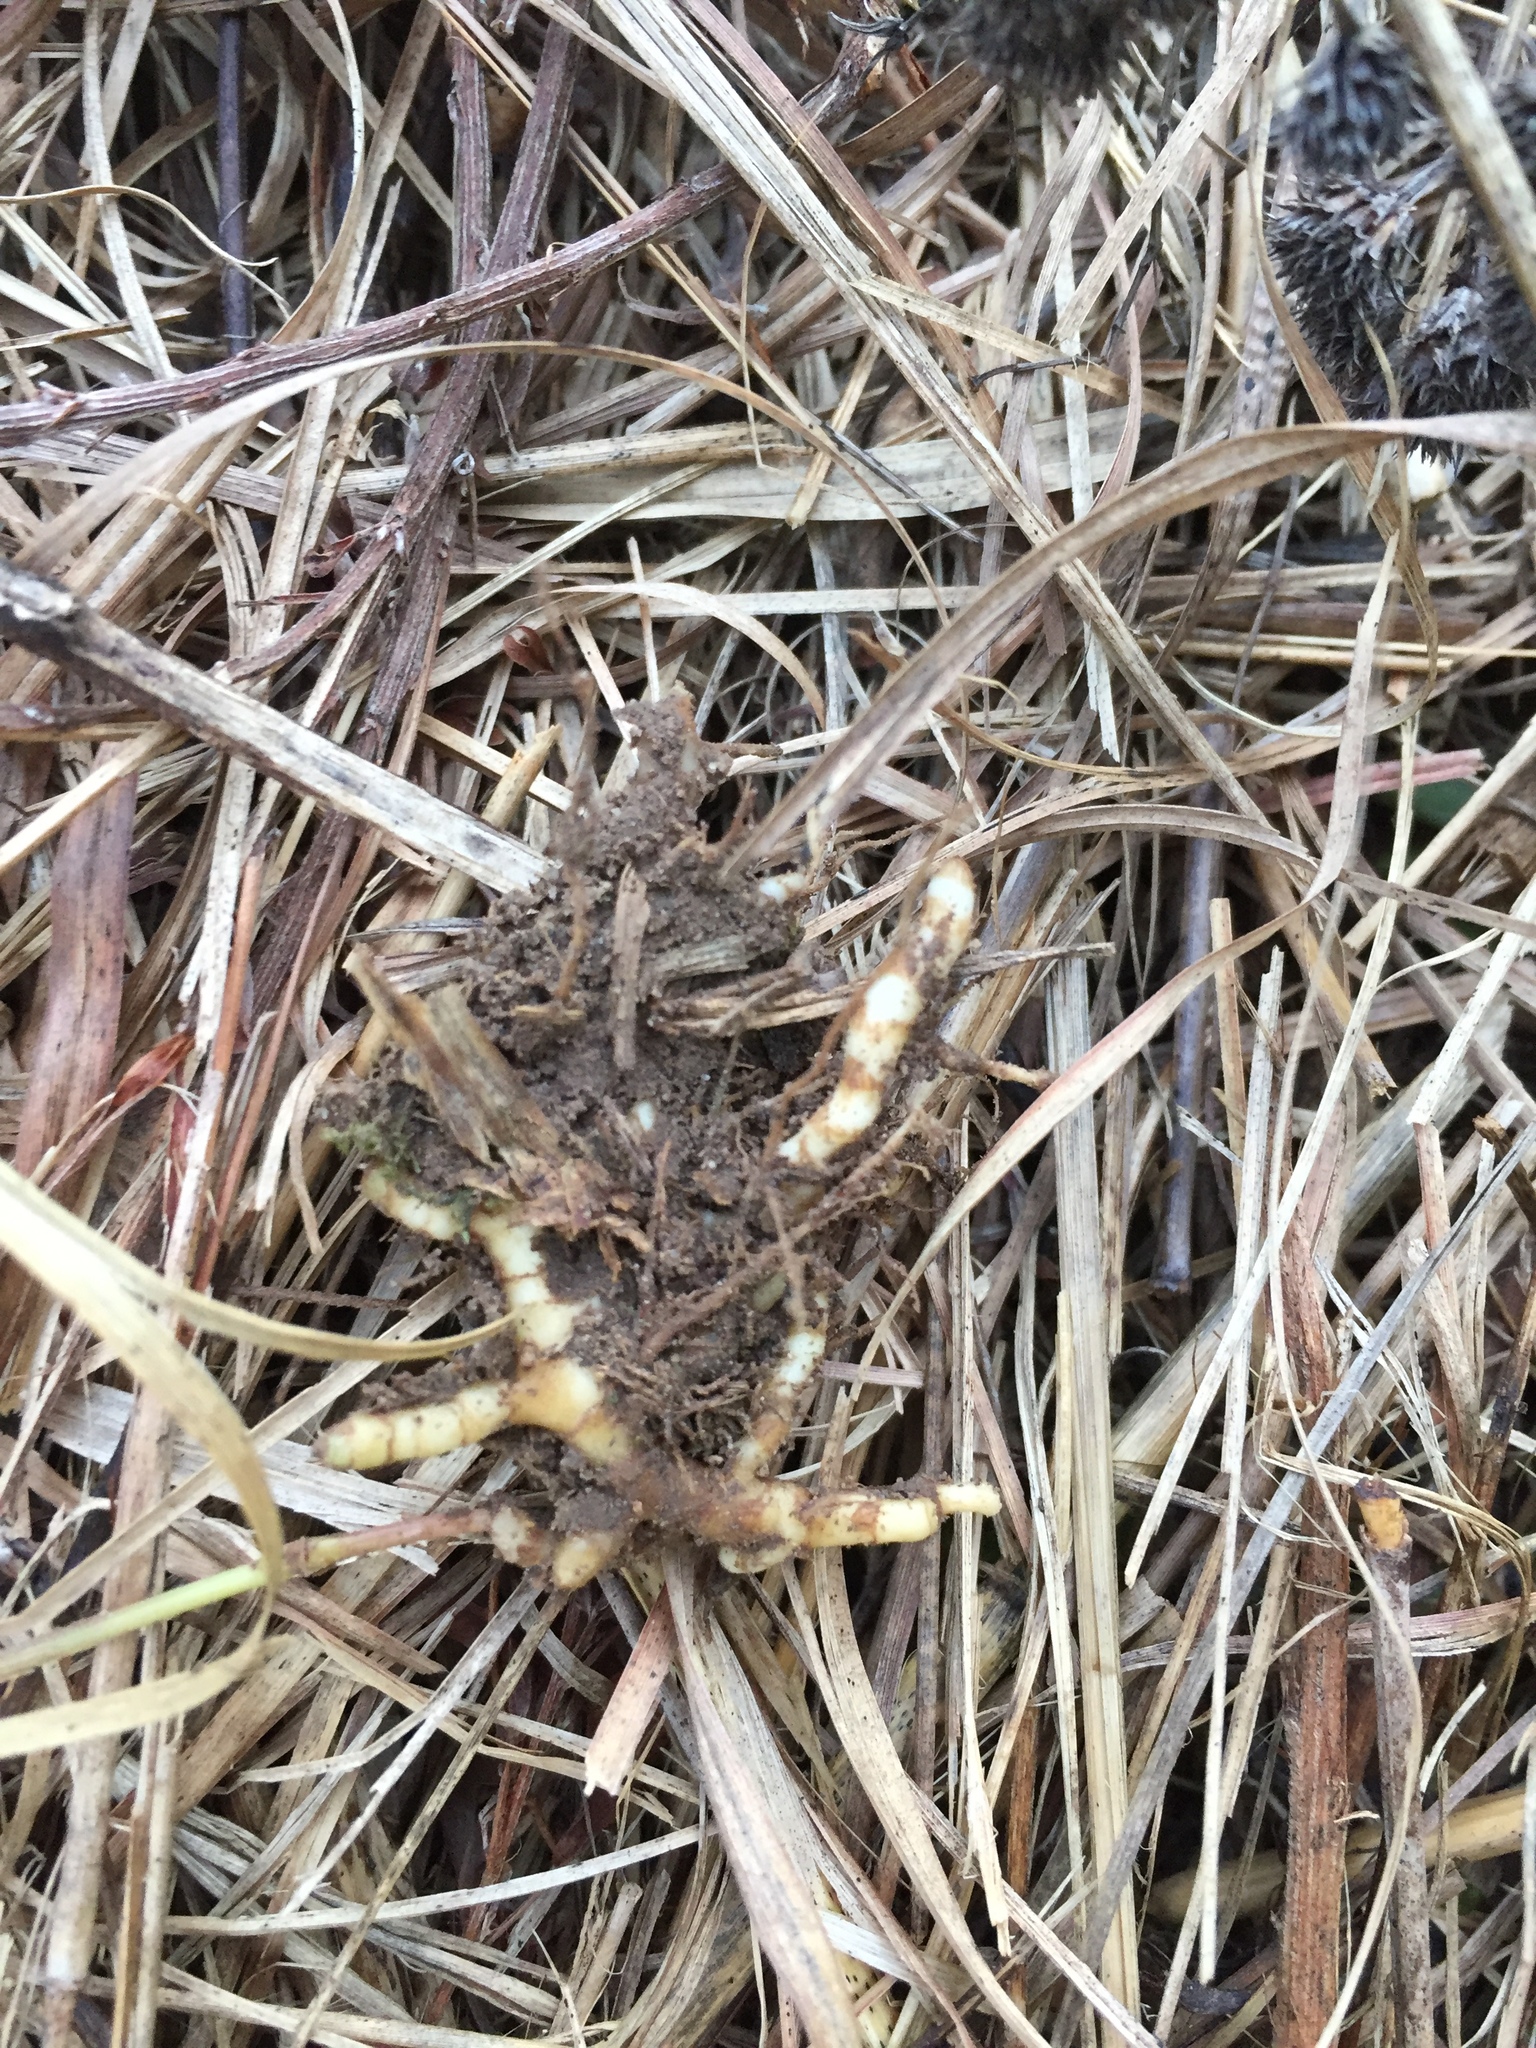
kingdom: Plantae
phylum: Tracheophyta
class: Liliopsida
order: Poales
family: Poaceae
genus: Setaria
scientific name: Setaria parviflora
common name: Knotroot bristle-grass
